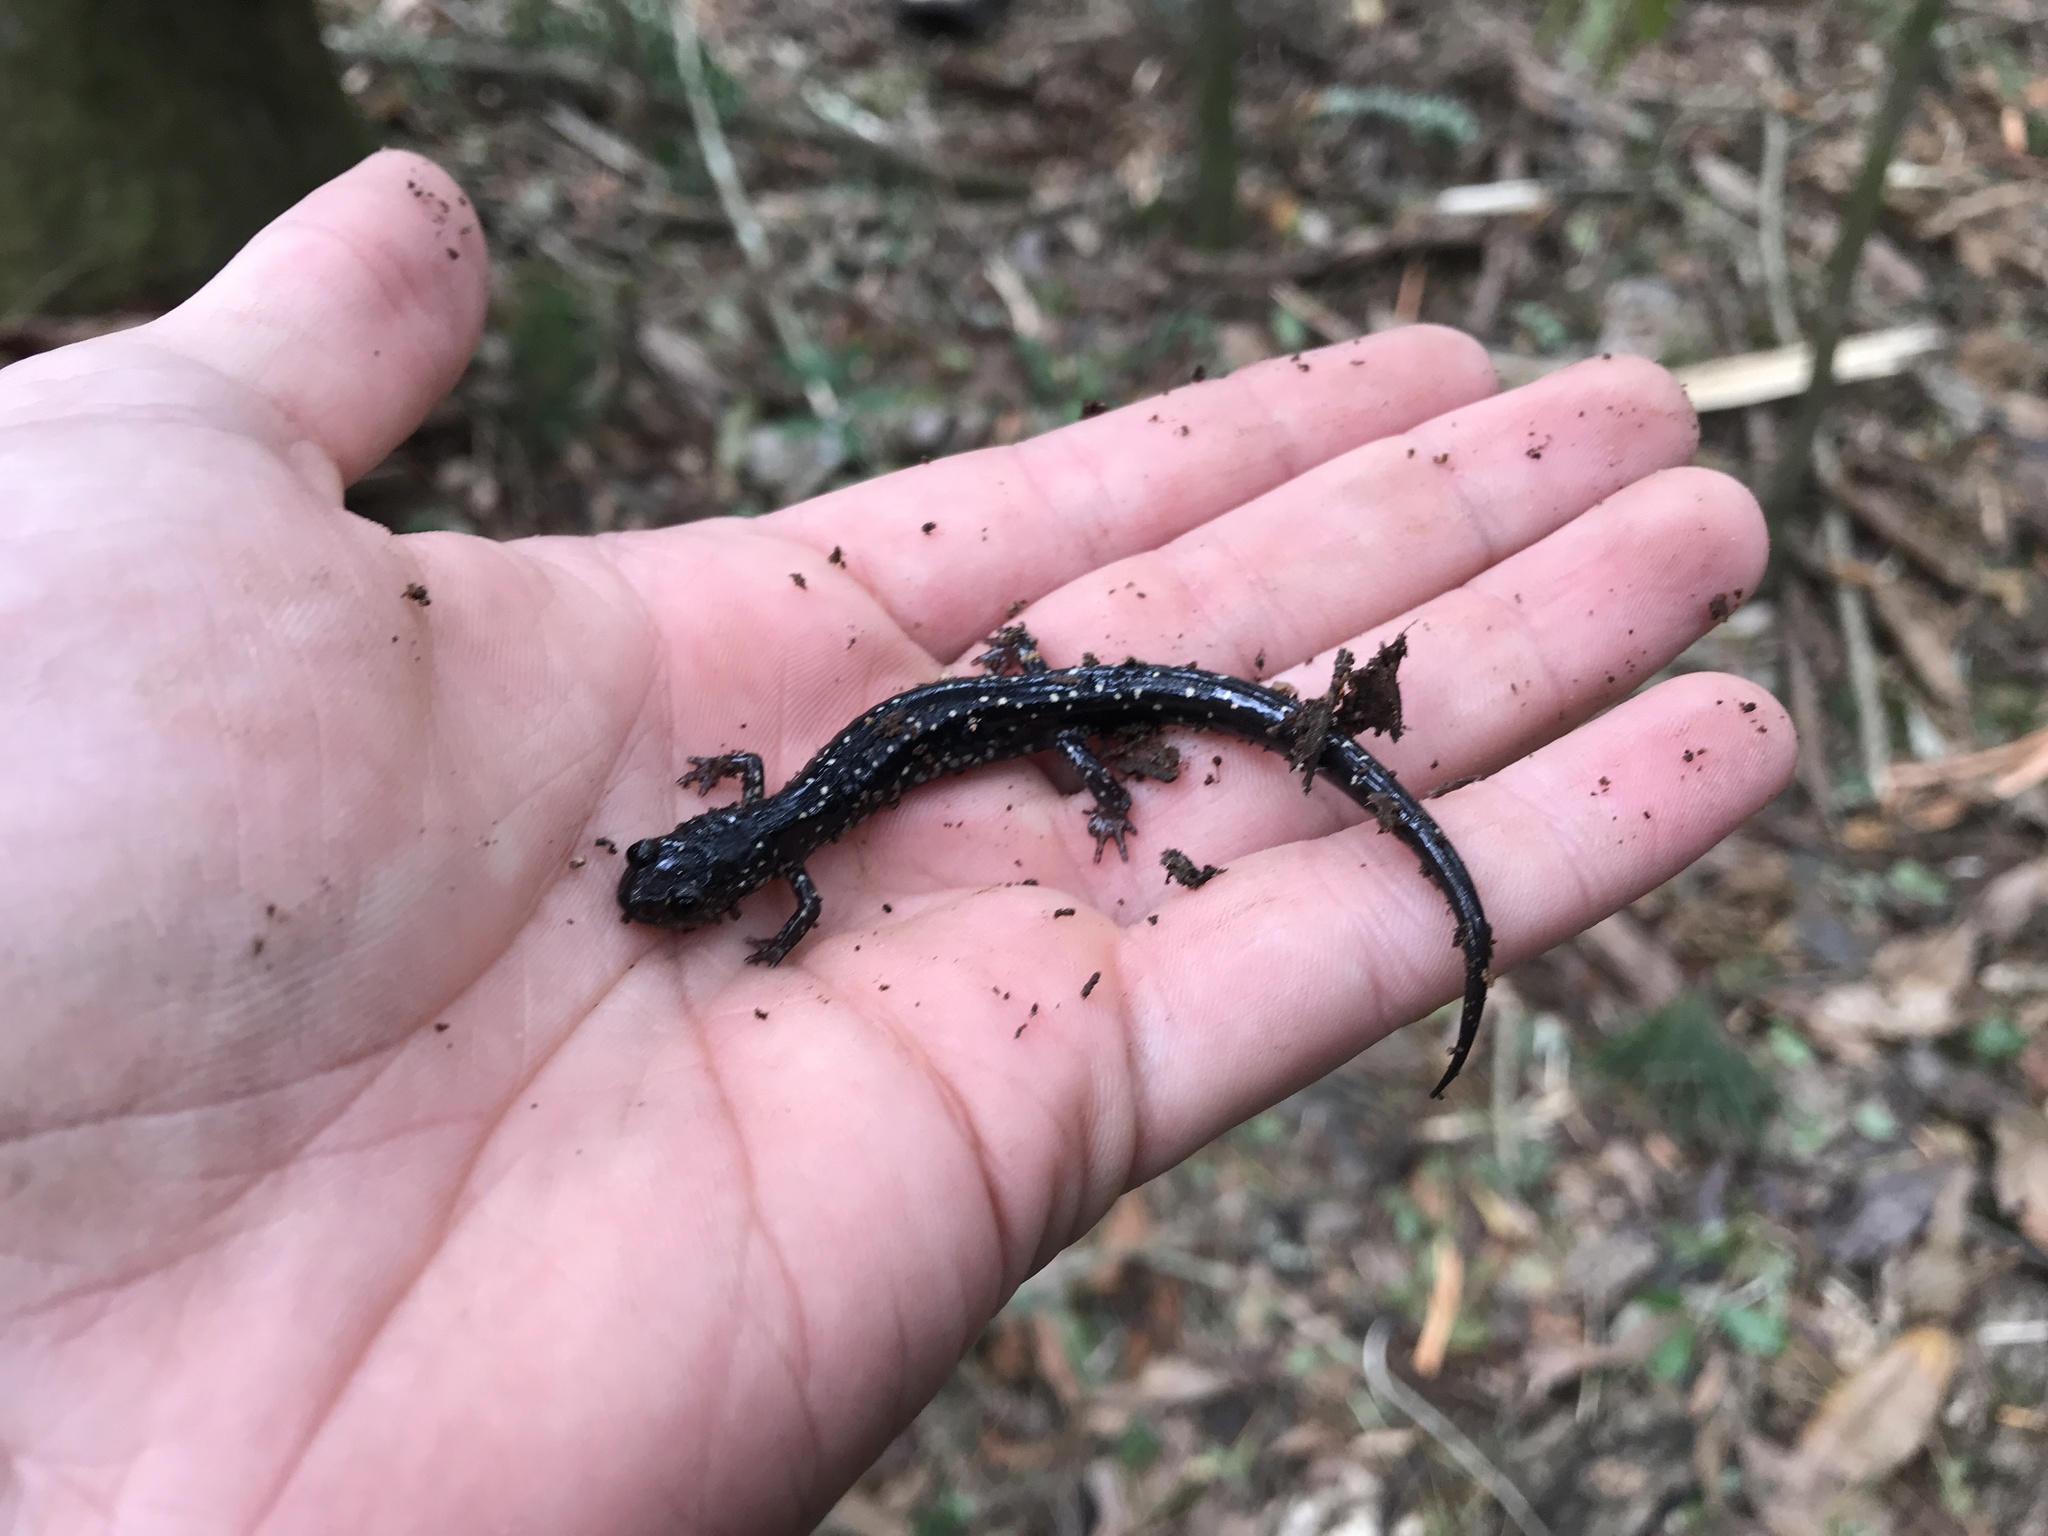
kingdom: Animalia
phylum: Chordata
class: Amphibia
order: Caudata
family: Plethodontidae
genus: Plethodon
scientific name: Plethodon mississippi
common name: Mississippi slimy salamander
